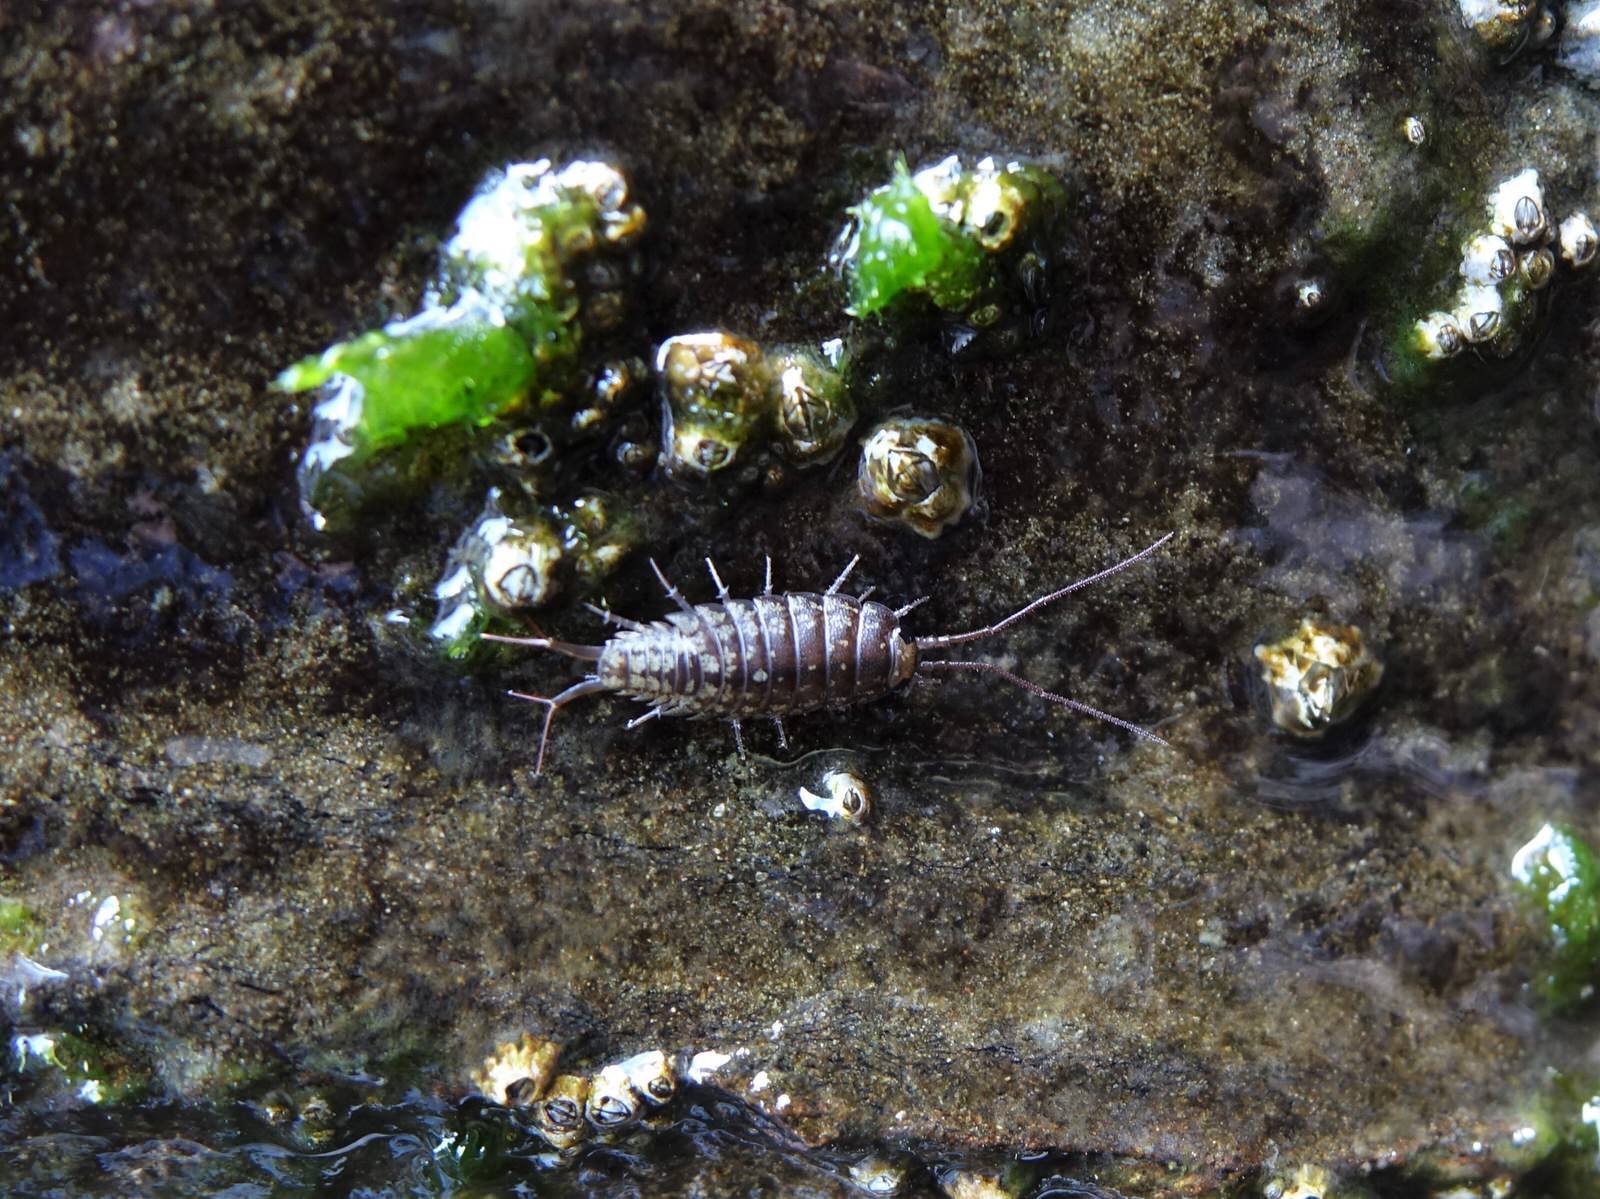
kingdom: Animalia
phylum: Arthropoda
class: Malacostraca
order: Isopoda
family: Ligiidae
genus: Ligia
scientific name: Ligia novizealandiae
